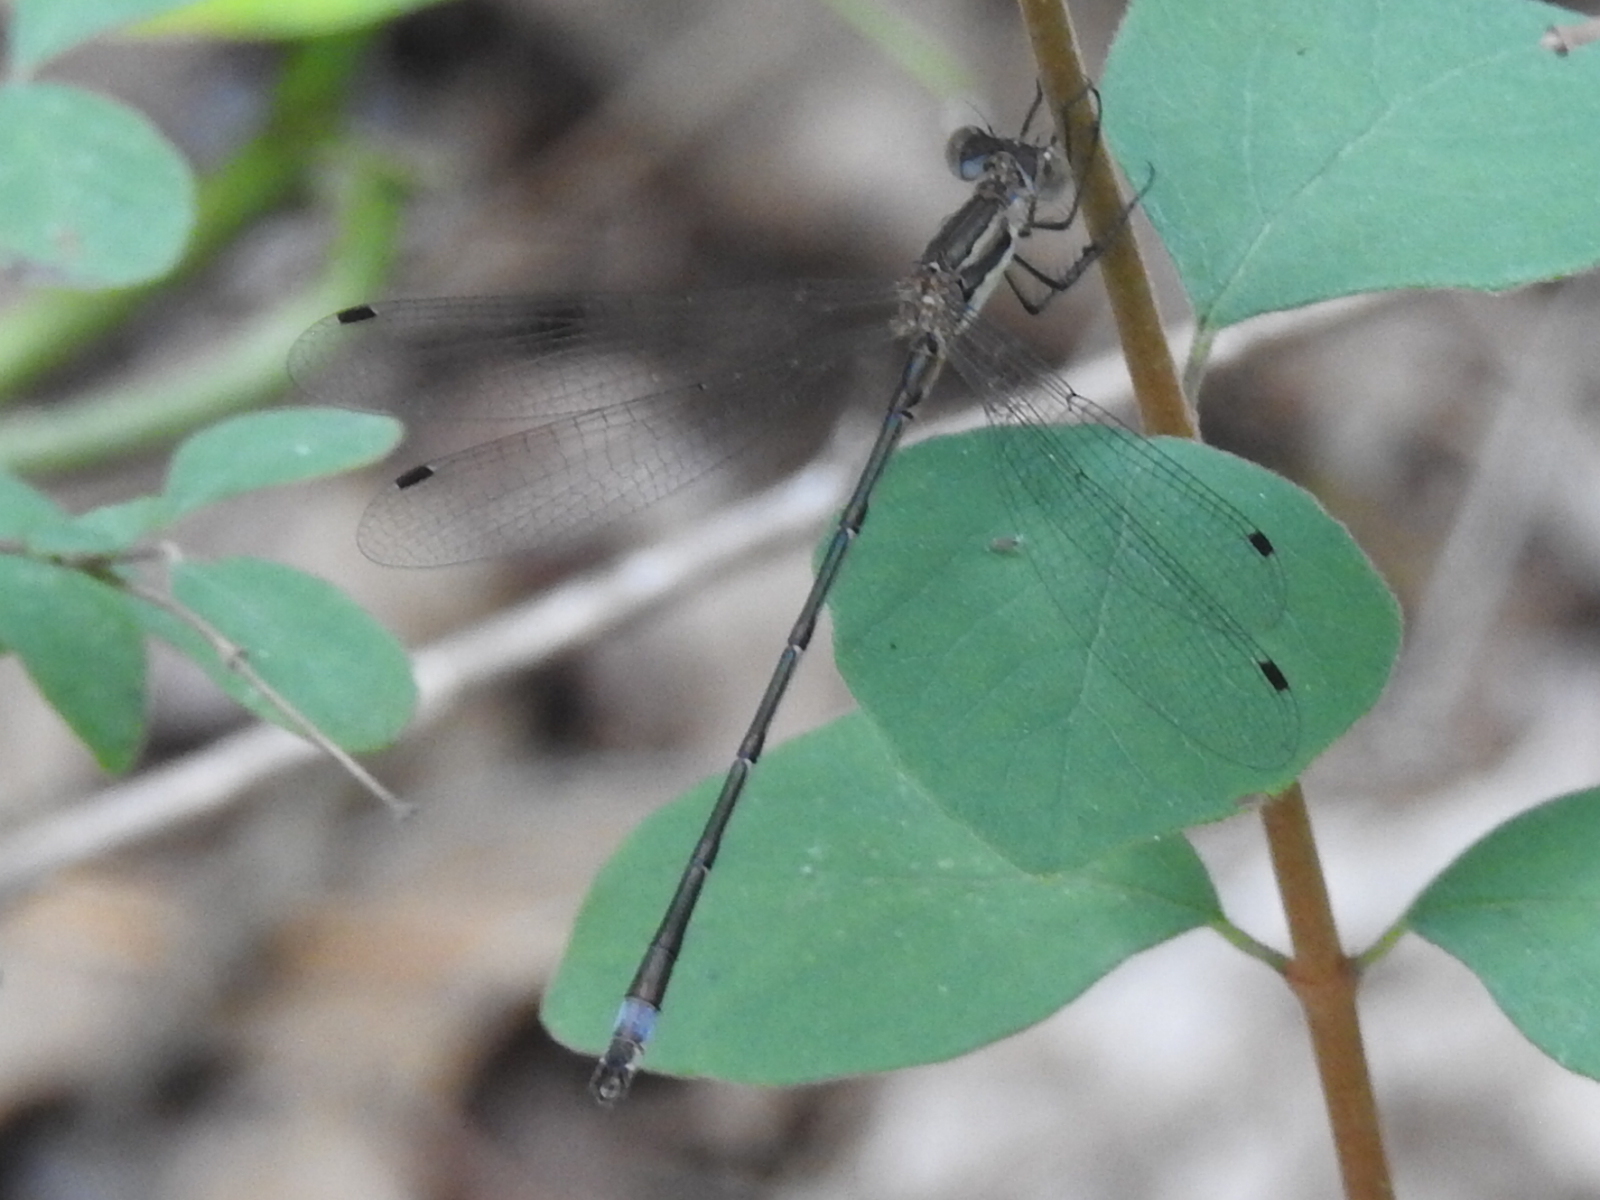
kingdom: Animalia
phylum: Arthropoda
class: Insecta
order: Odonata
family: Lestidae
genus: Lestes
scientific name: Lestes australis
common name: Southern spreadwing
